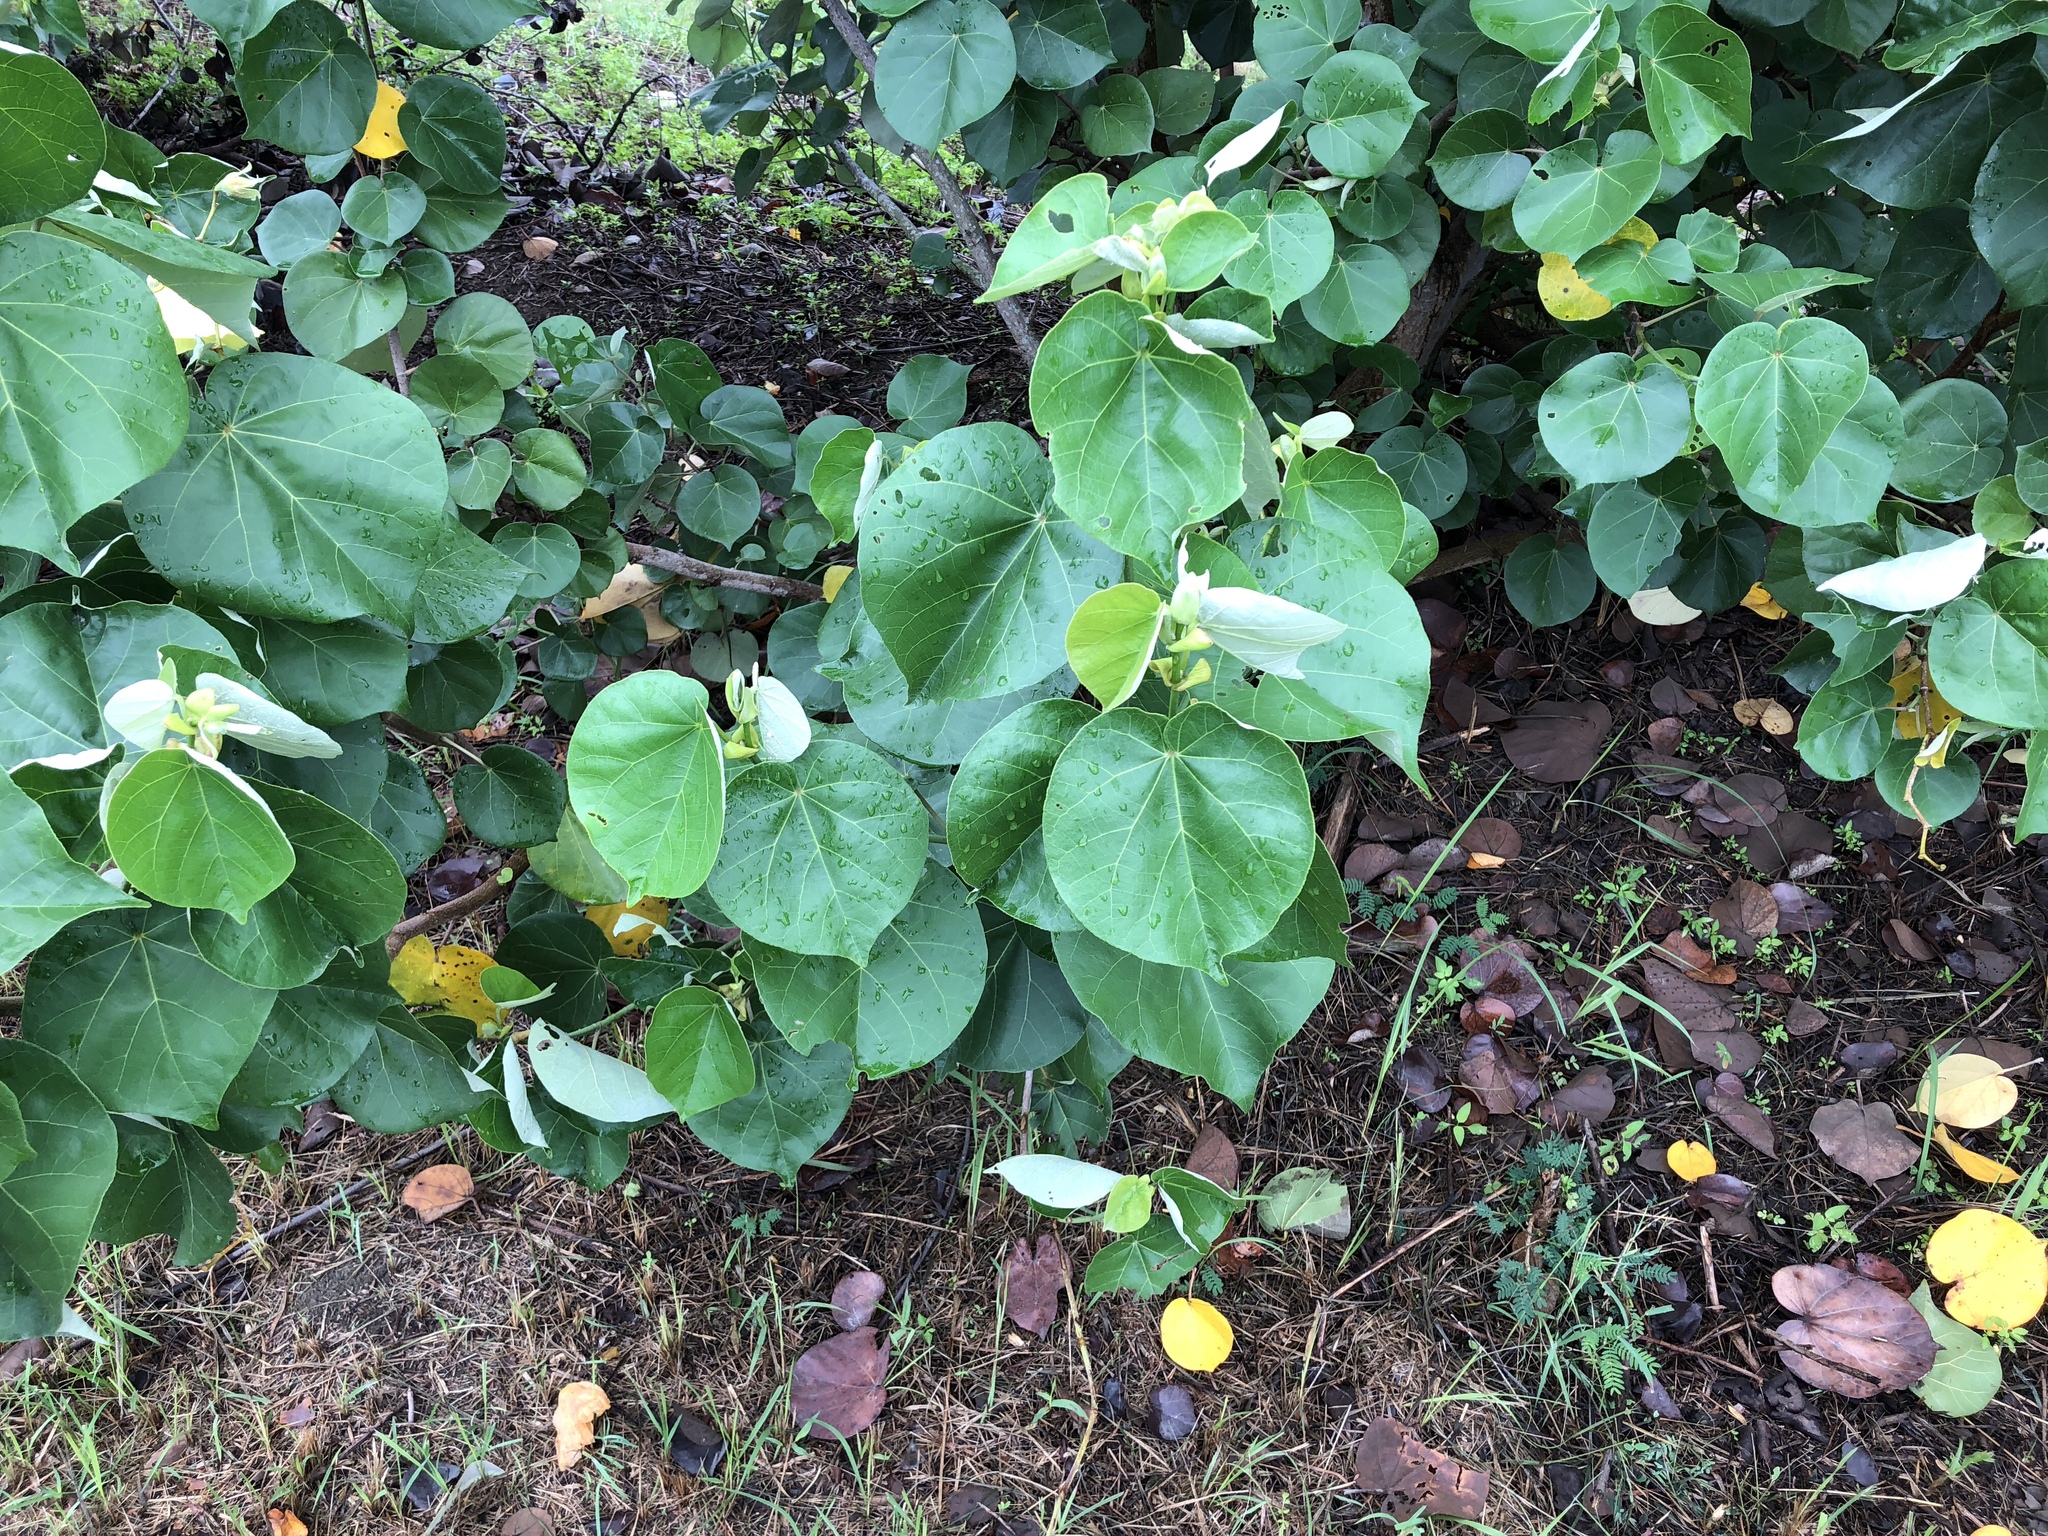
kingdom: Plantae
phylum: Tracheophyta
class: Magnoliopsida
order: Malvales
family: Malvaceae
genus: Talipariti
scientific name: Talipariti tiliaceum
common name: Sea hibiscus
